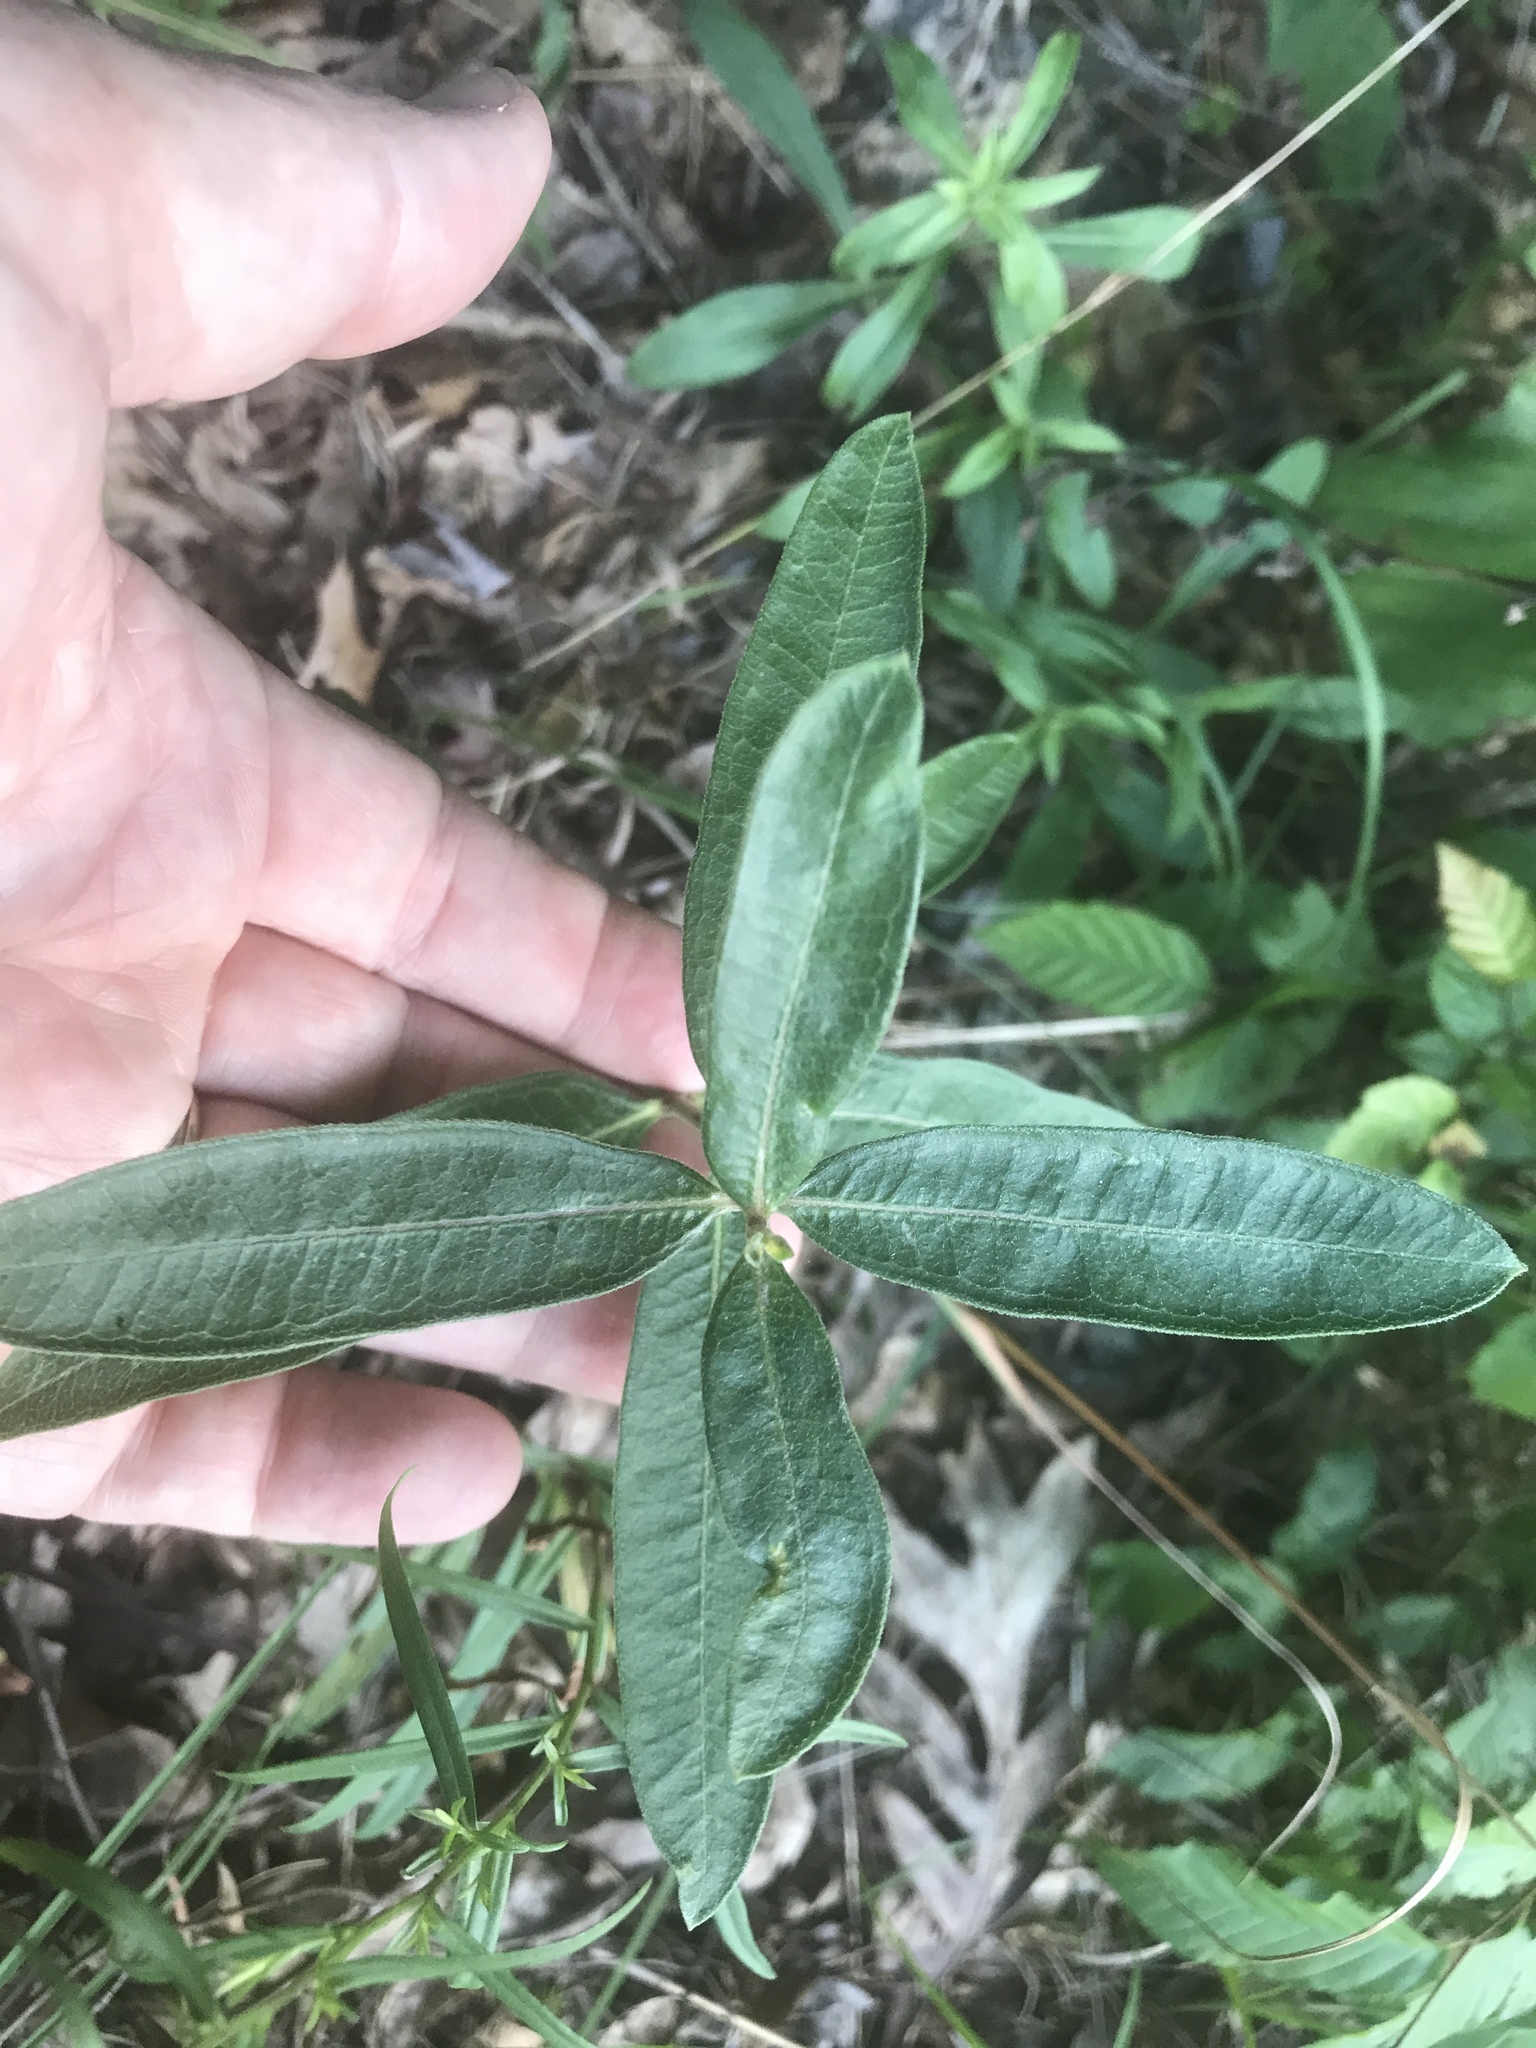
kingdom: Plantae
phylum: Tracheophyta
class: Magnoliopsida
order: Gentianales
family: Apocynaceae
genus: Asclepias
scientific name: Asclepias viridiflora
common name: Green comet milkweed
